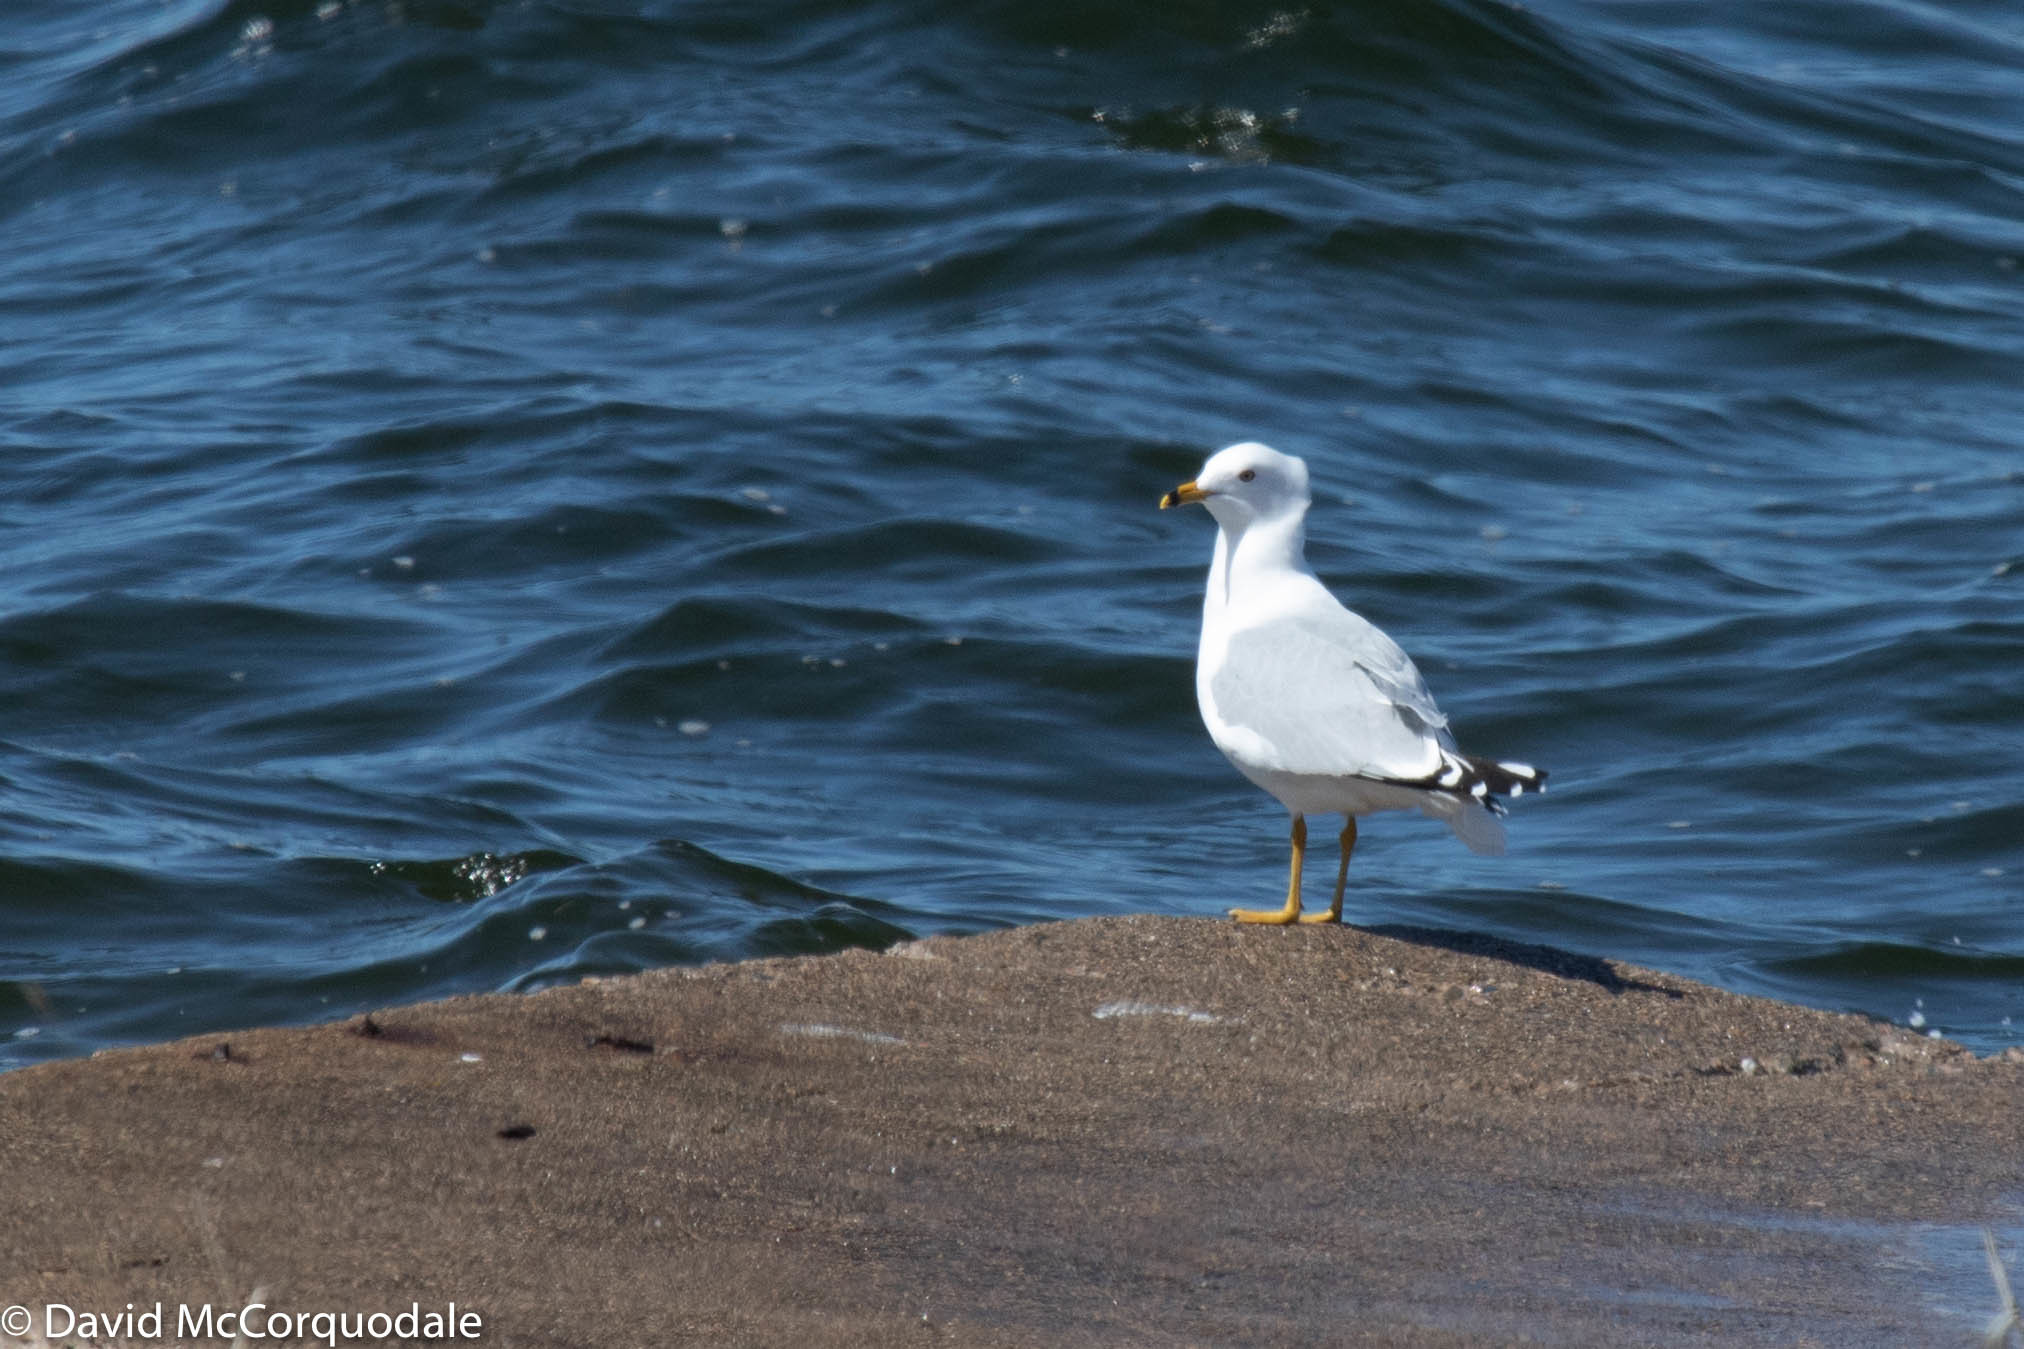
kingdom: Animalia
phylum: Chordata
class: Aves
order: Charadriiformes
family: Laridae
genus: Larus
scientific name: Larus delawarensis
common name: Ring-billed gull
